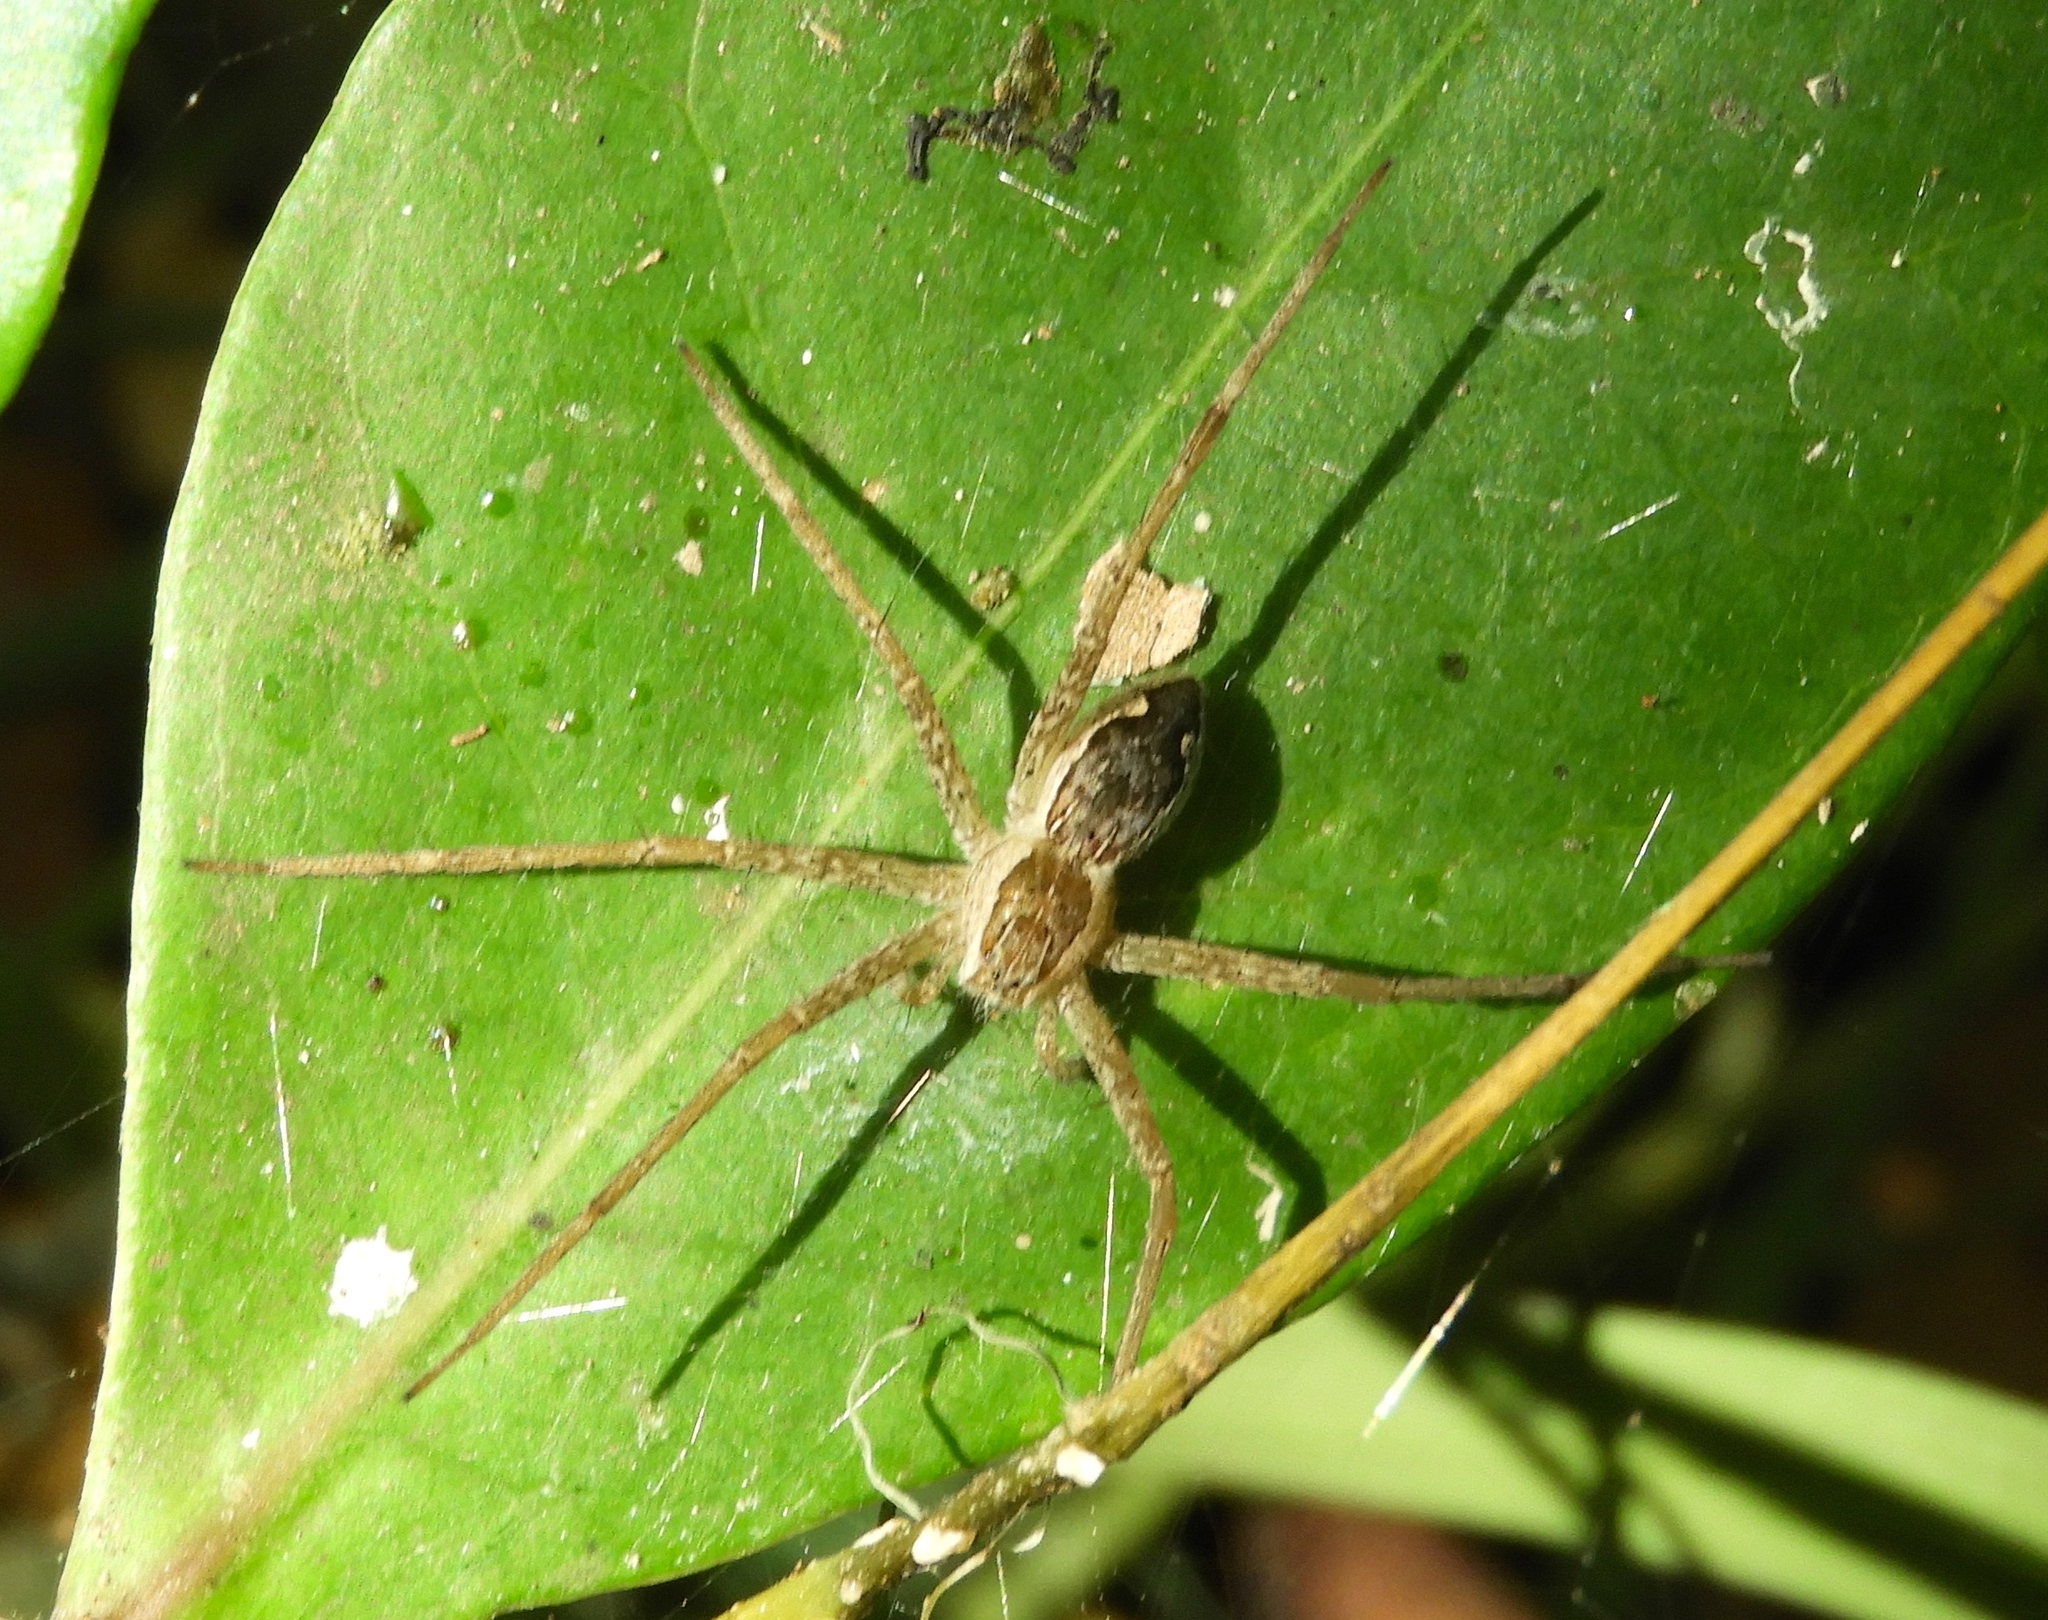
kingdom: Animalia
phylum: Arthropoda
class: Arachnida
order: Araneae
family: Pisauridae
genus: Tinus
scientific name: Tinus
